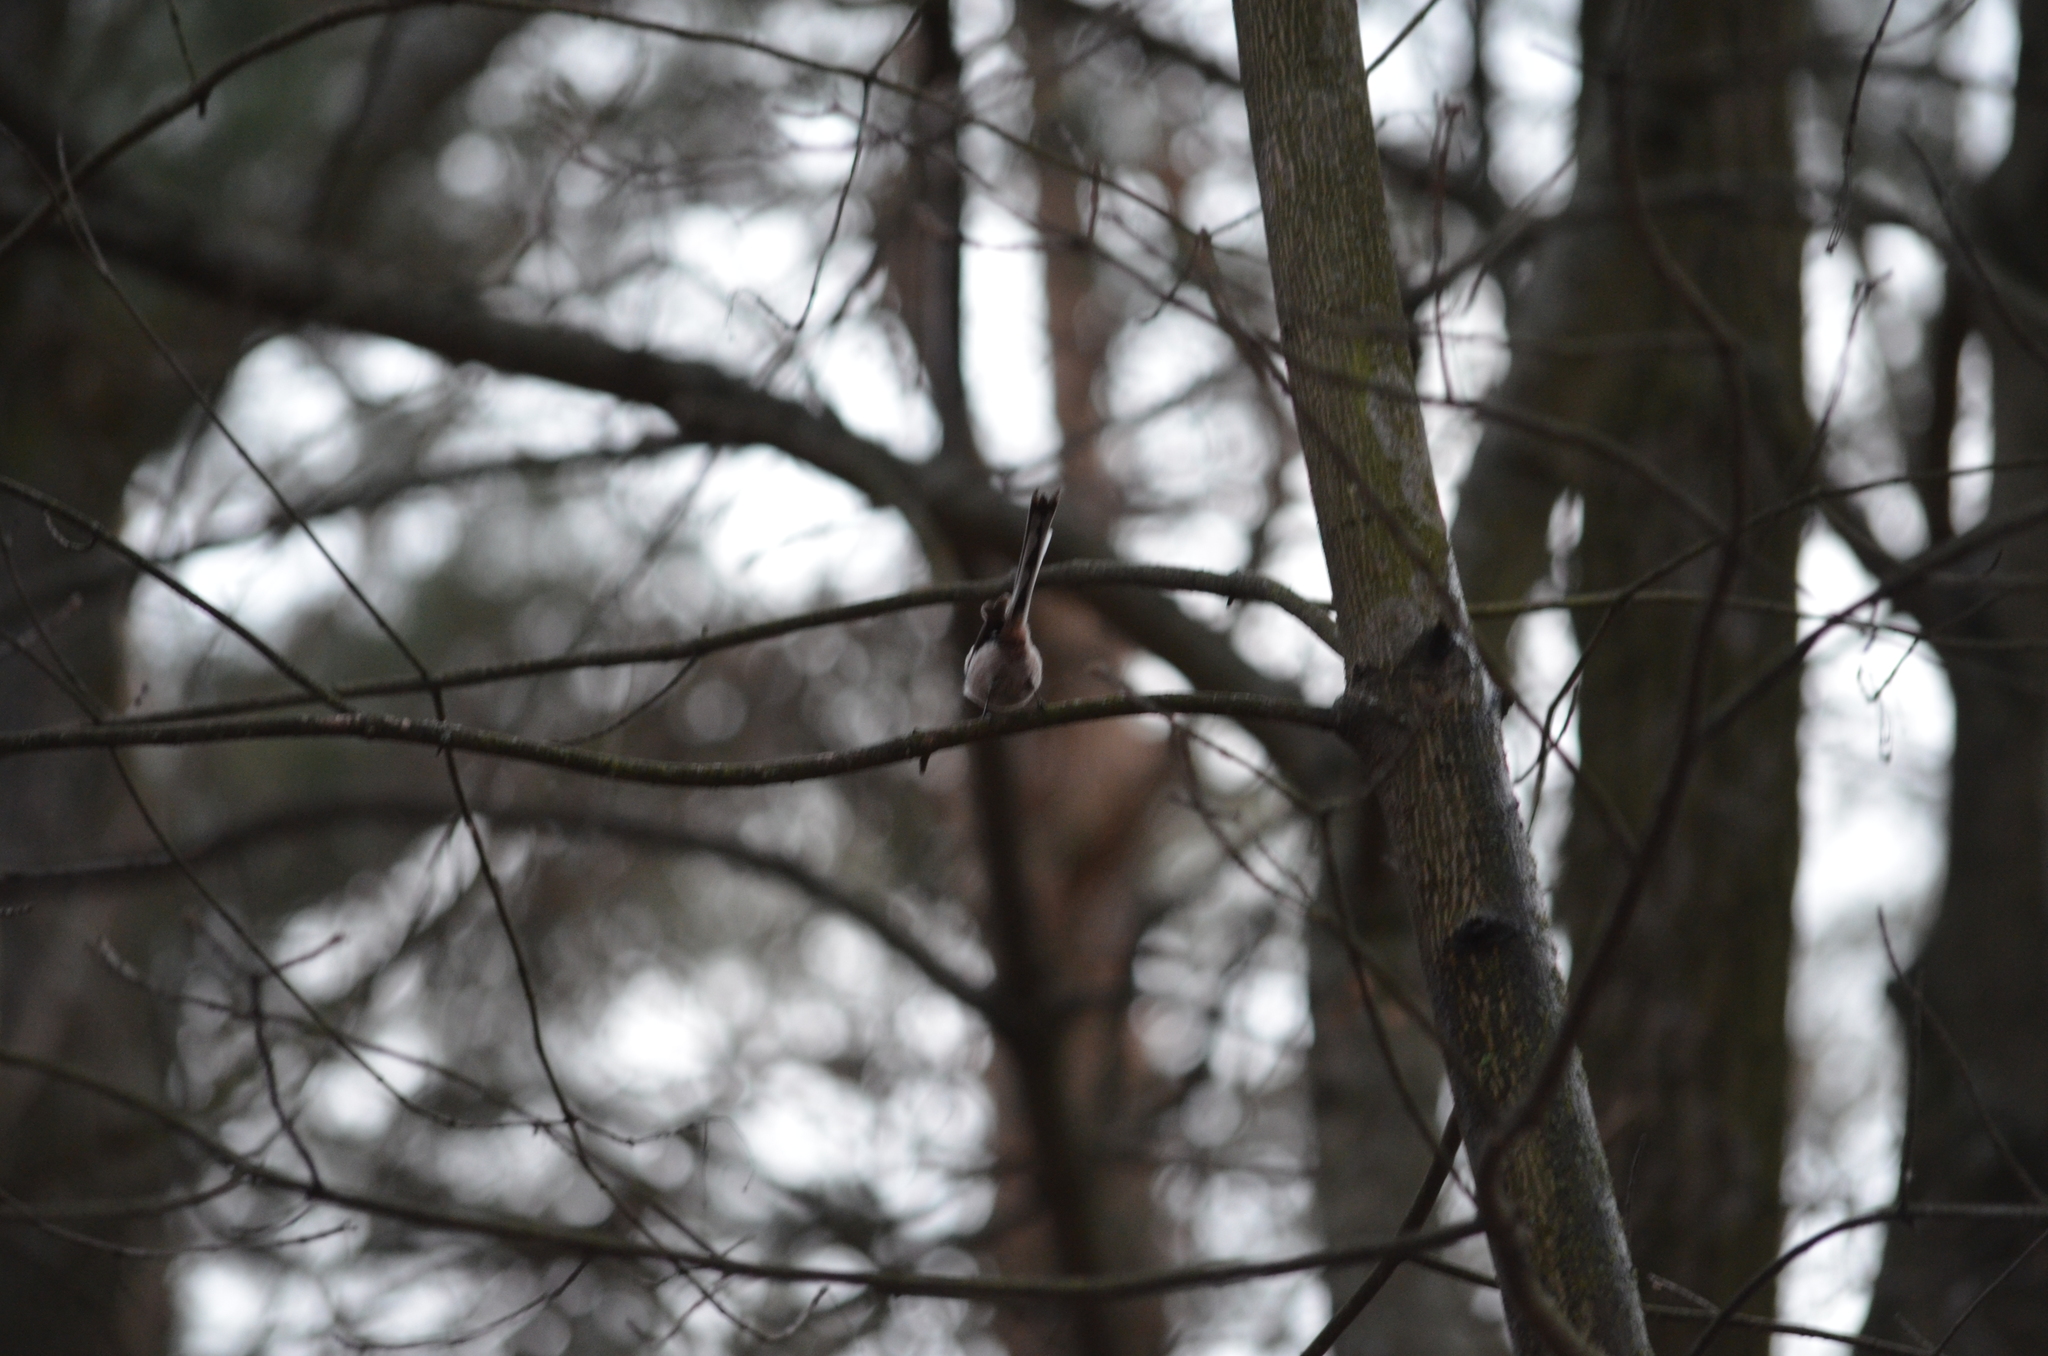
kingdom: Animalia
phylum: Chordata
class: Aves
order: Passeriformes
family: Aegithalidae
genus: Aegithalos
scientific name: Aegithalos caudatus
